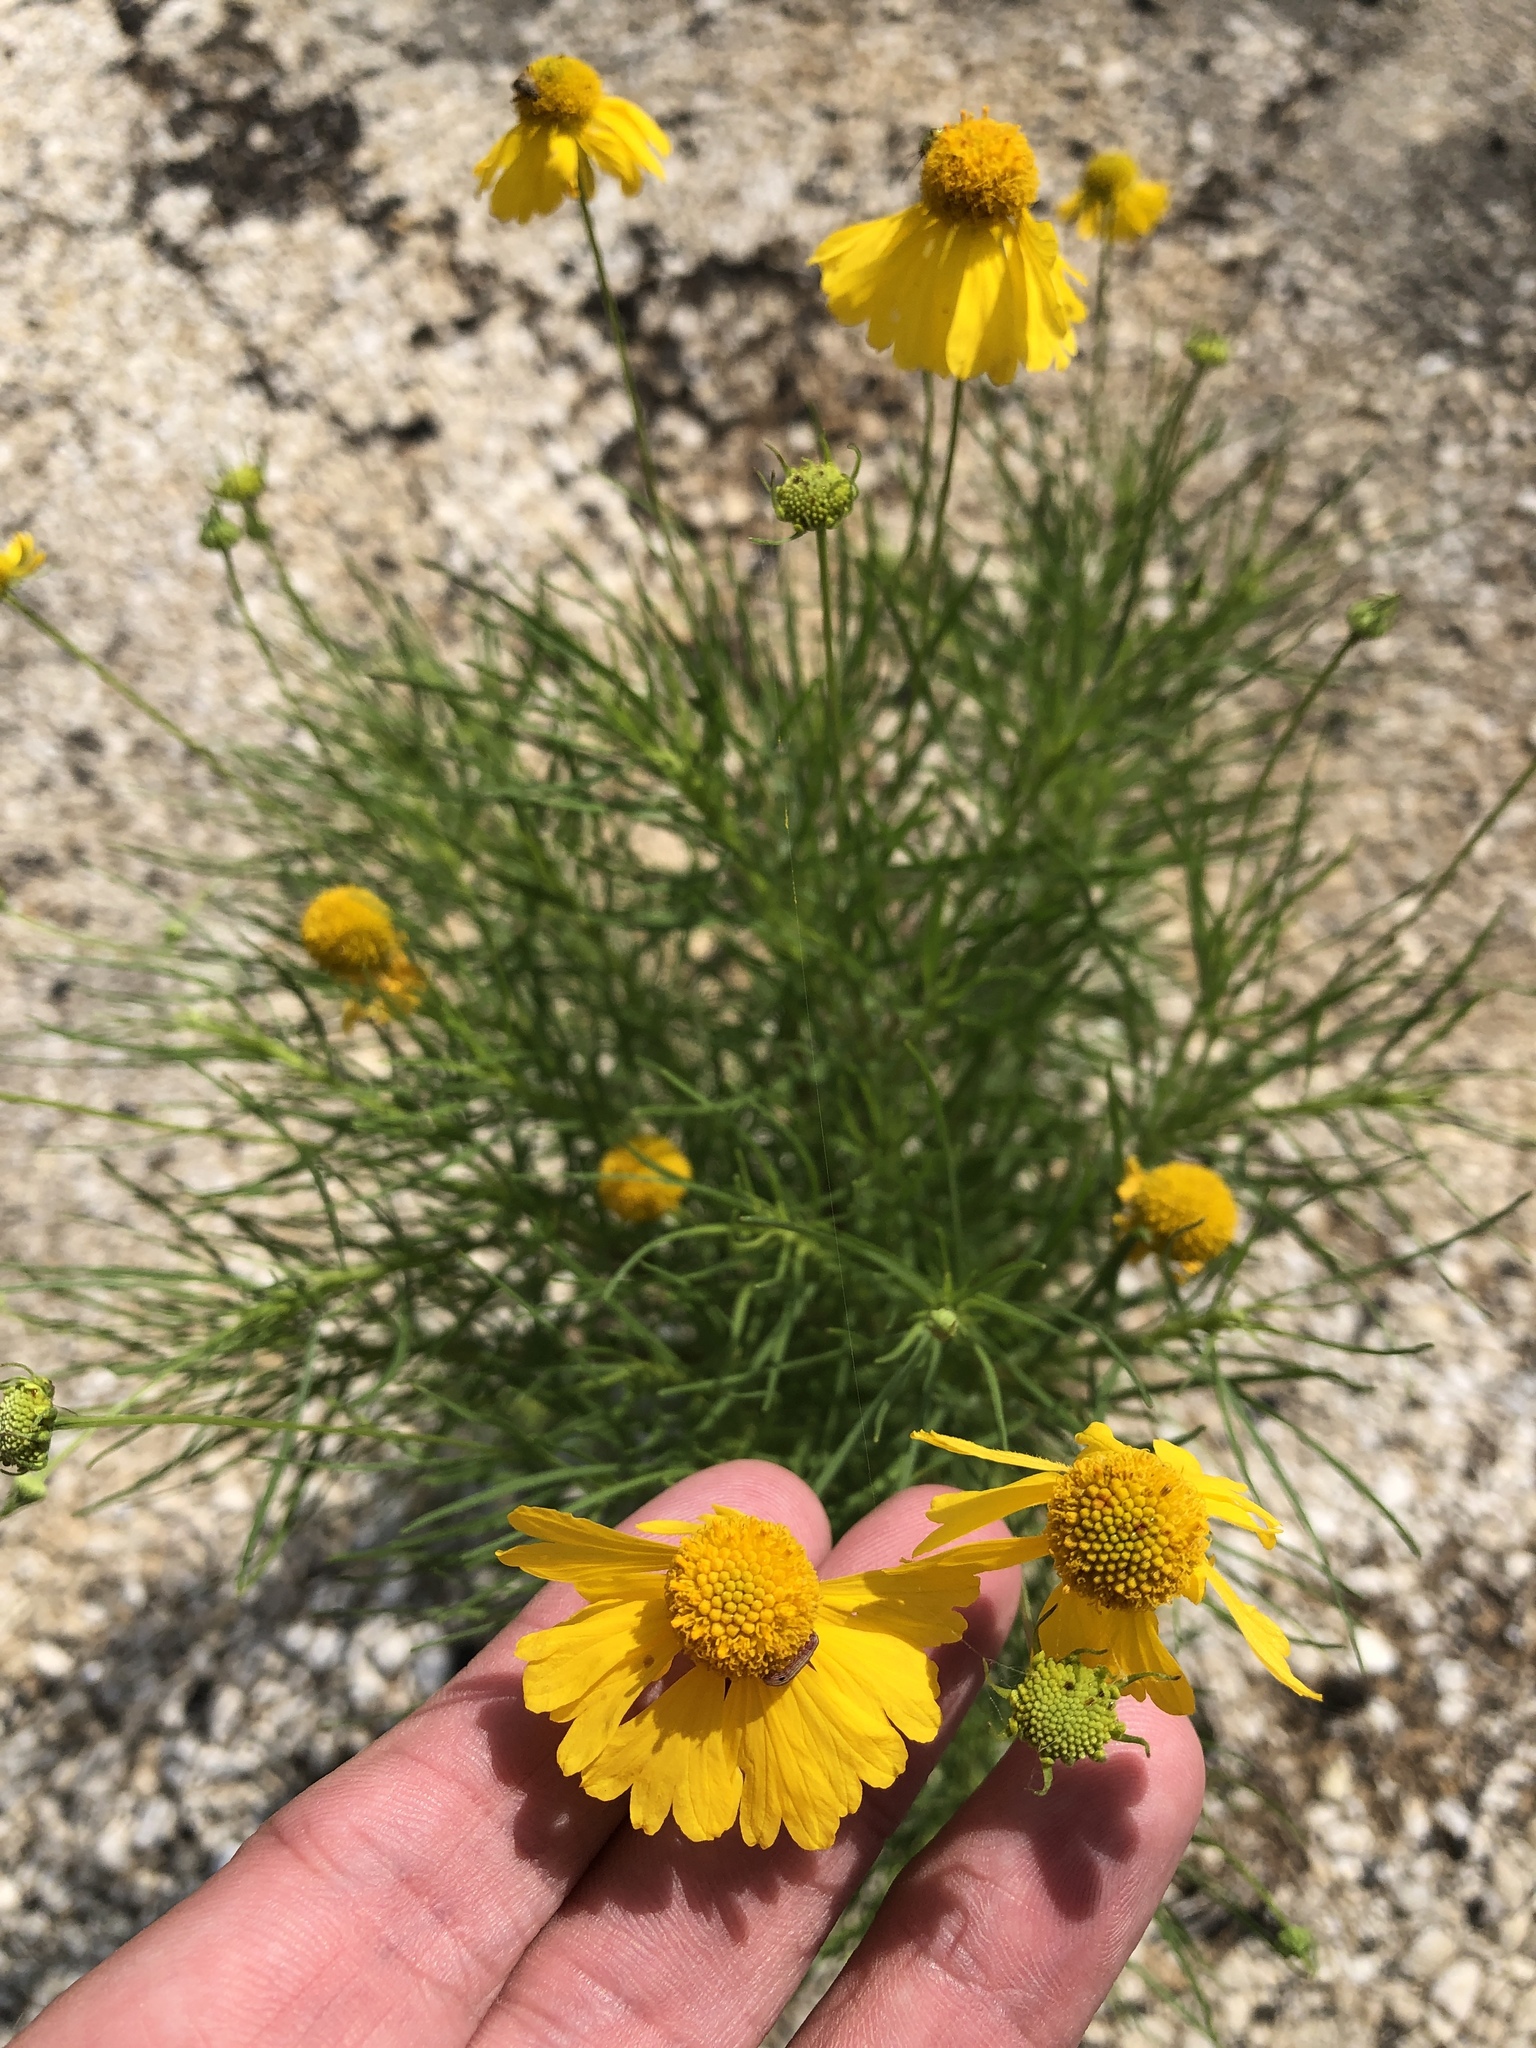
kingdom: Plantae
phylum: Tracheophyta
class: Magnoliopsida
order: Asterales
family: Asteraceae
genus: Helenium
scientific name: Helenium amarum
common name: Bitter sneezeweed
